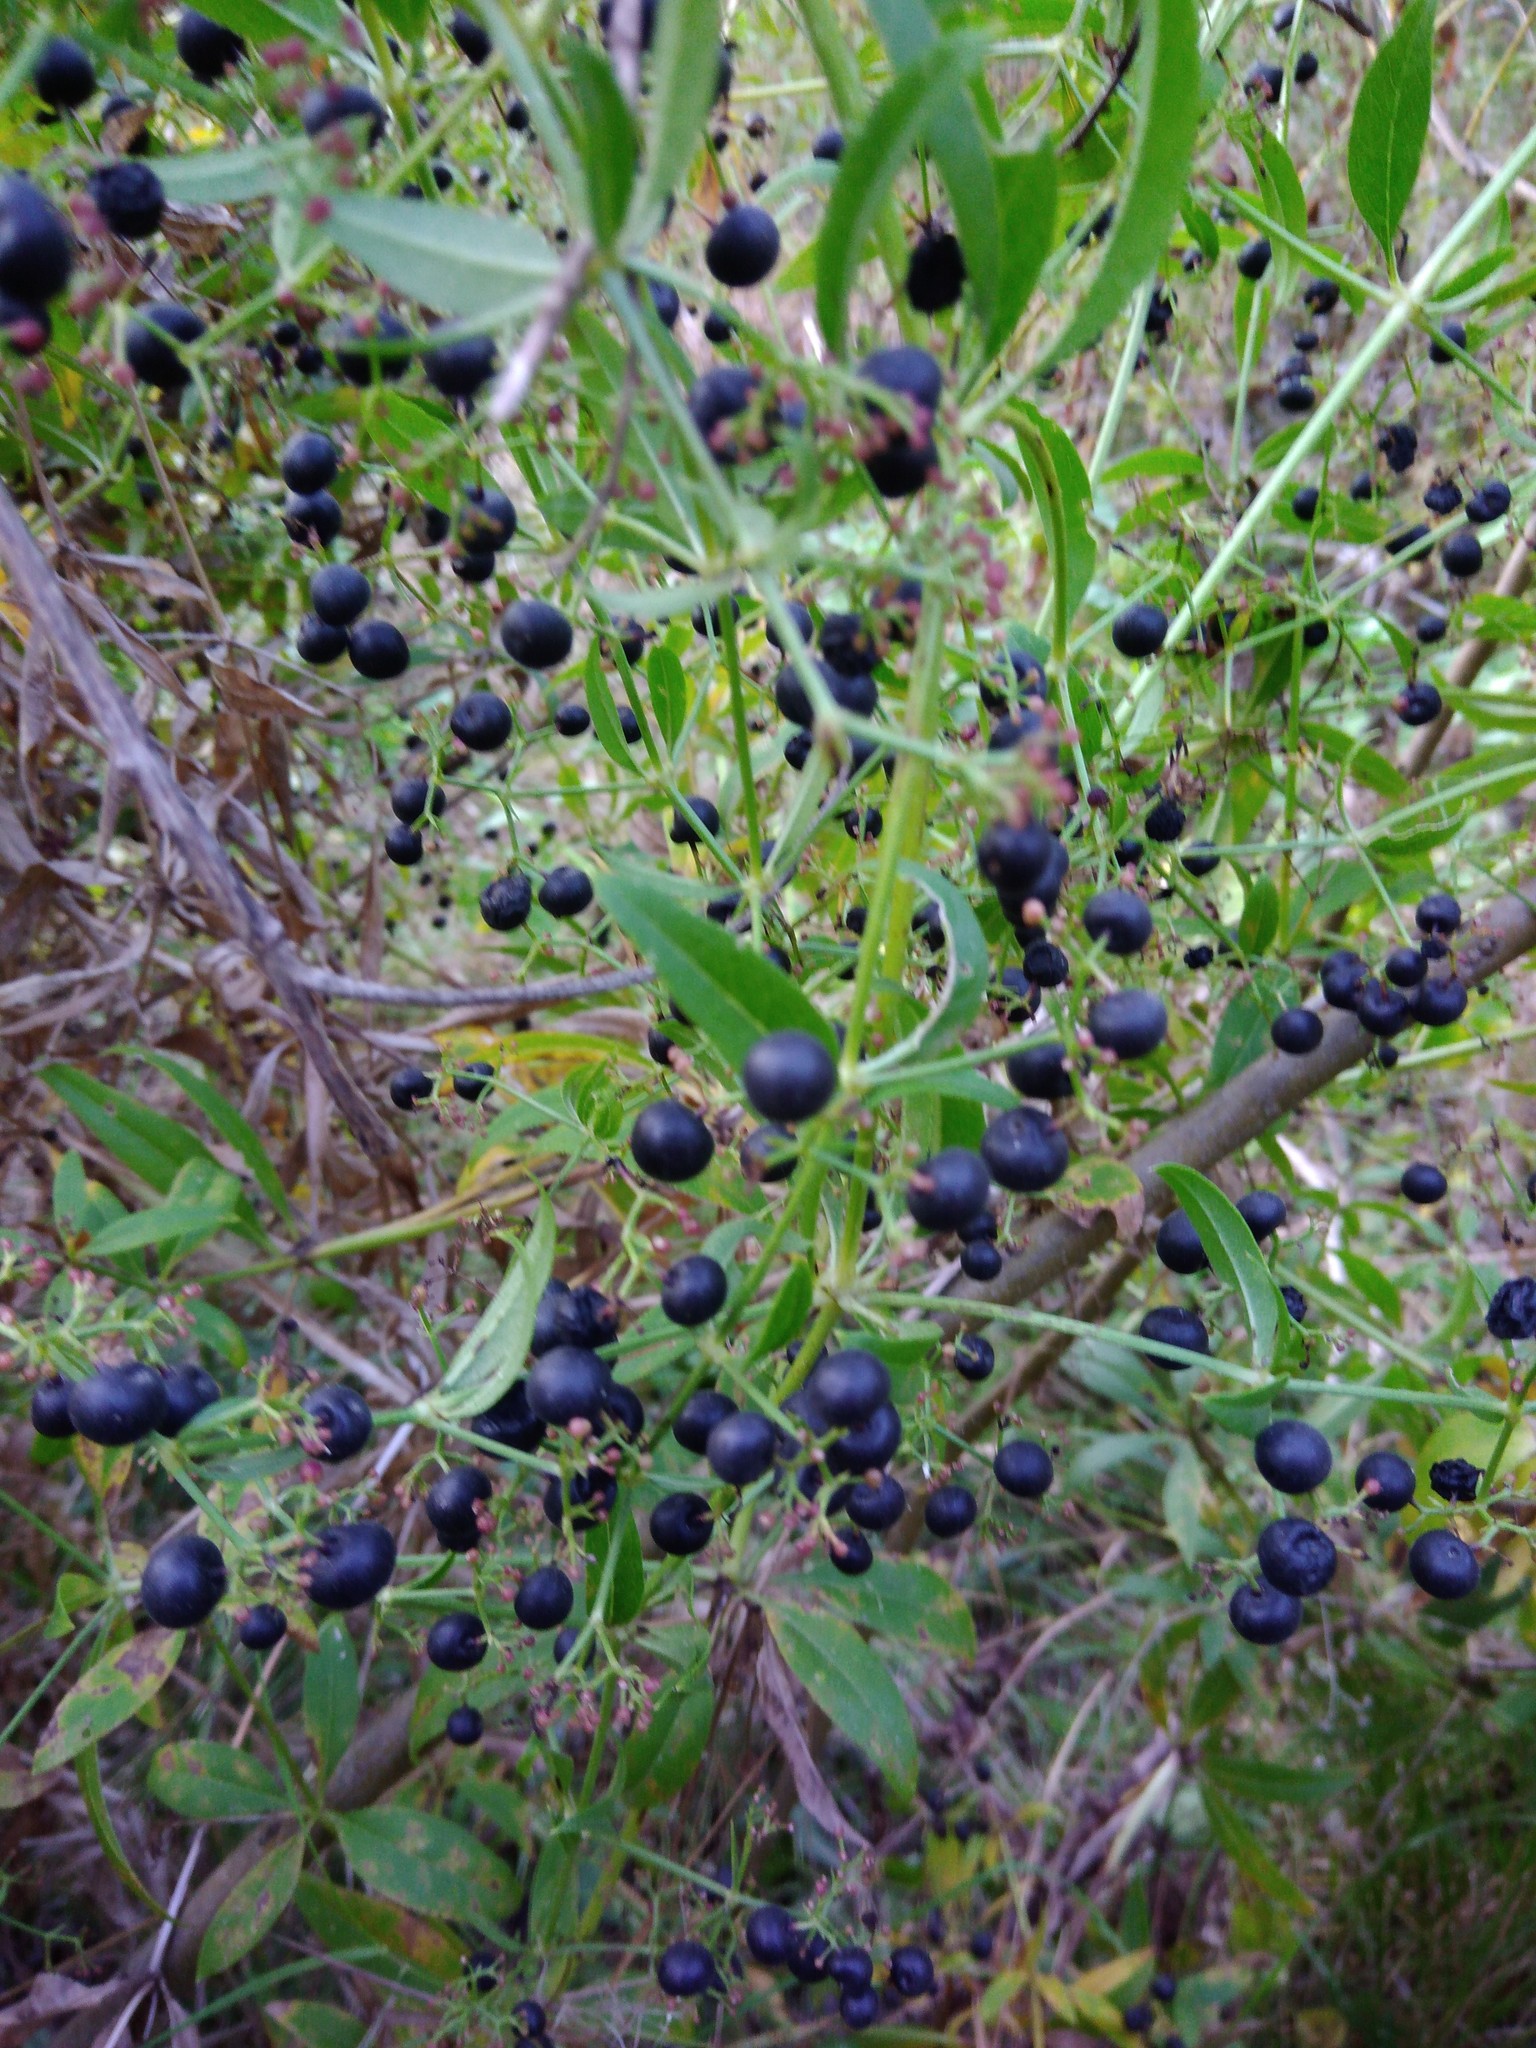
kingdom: Plantae
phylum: Tracheophyta
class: Magnoliopsida
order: Gentianales
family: Rubiaceae
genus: Rubia
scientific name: Rubia tinctorum
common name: Dyer's madder
